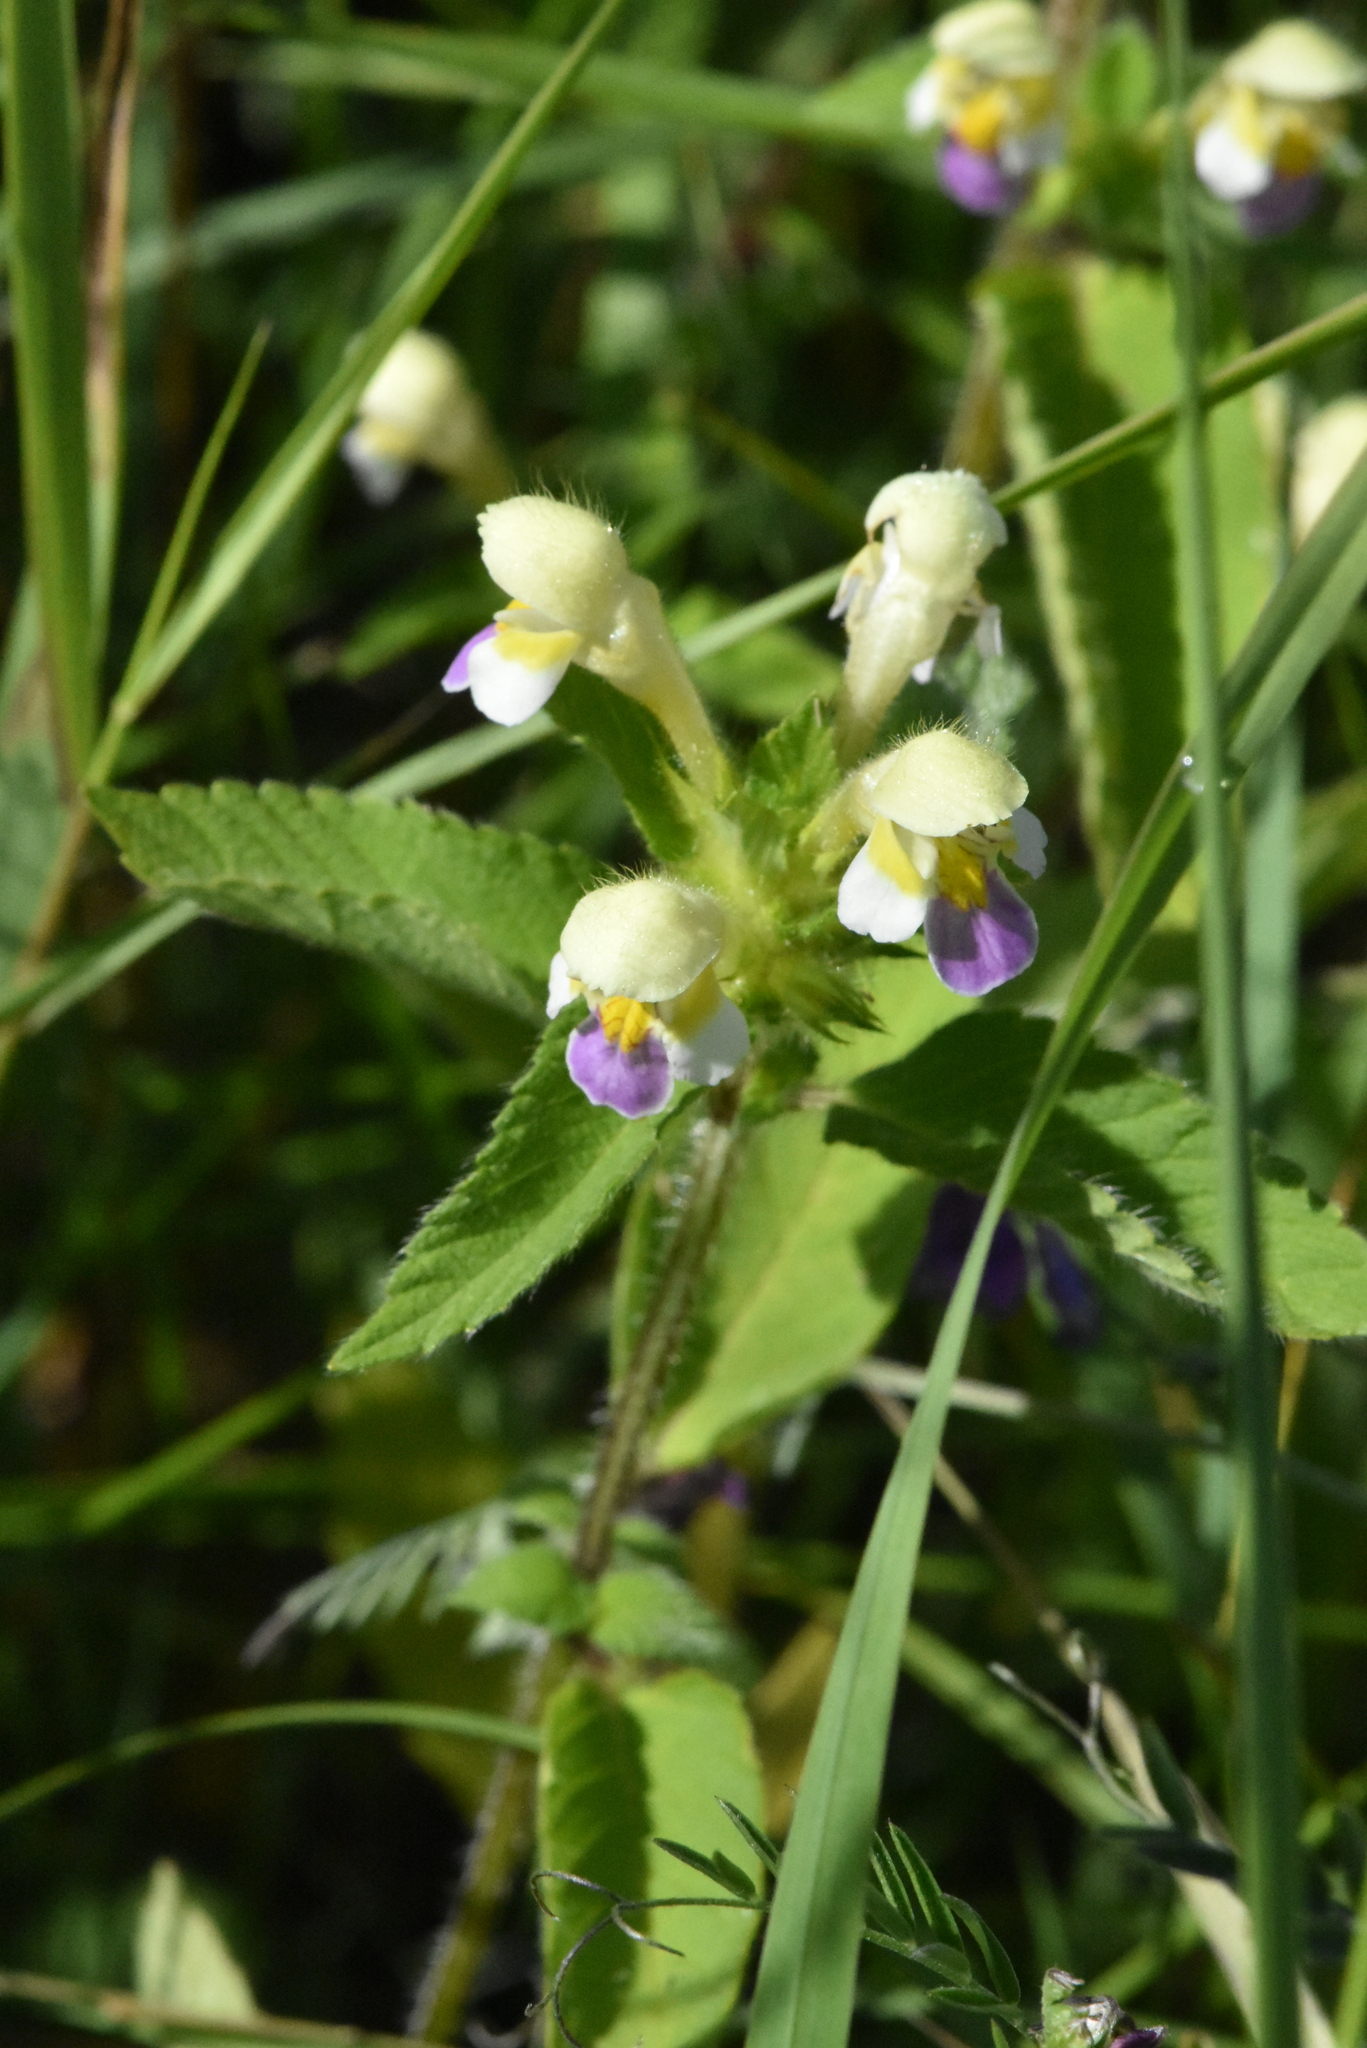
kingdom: Plantae
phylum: Tracheophyta
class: Magnoliopsida
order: Lamiales
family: Lamiaceae
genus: Galeopsis
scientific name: Galeopsis speciosa
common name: Large-flowered hemp-nettle
